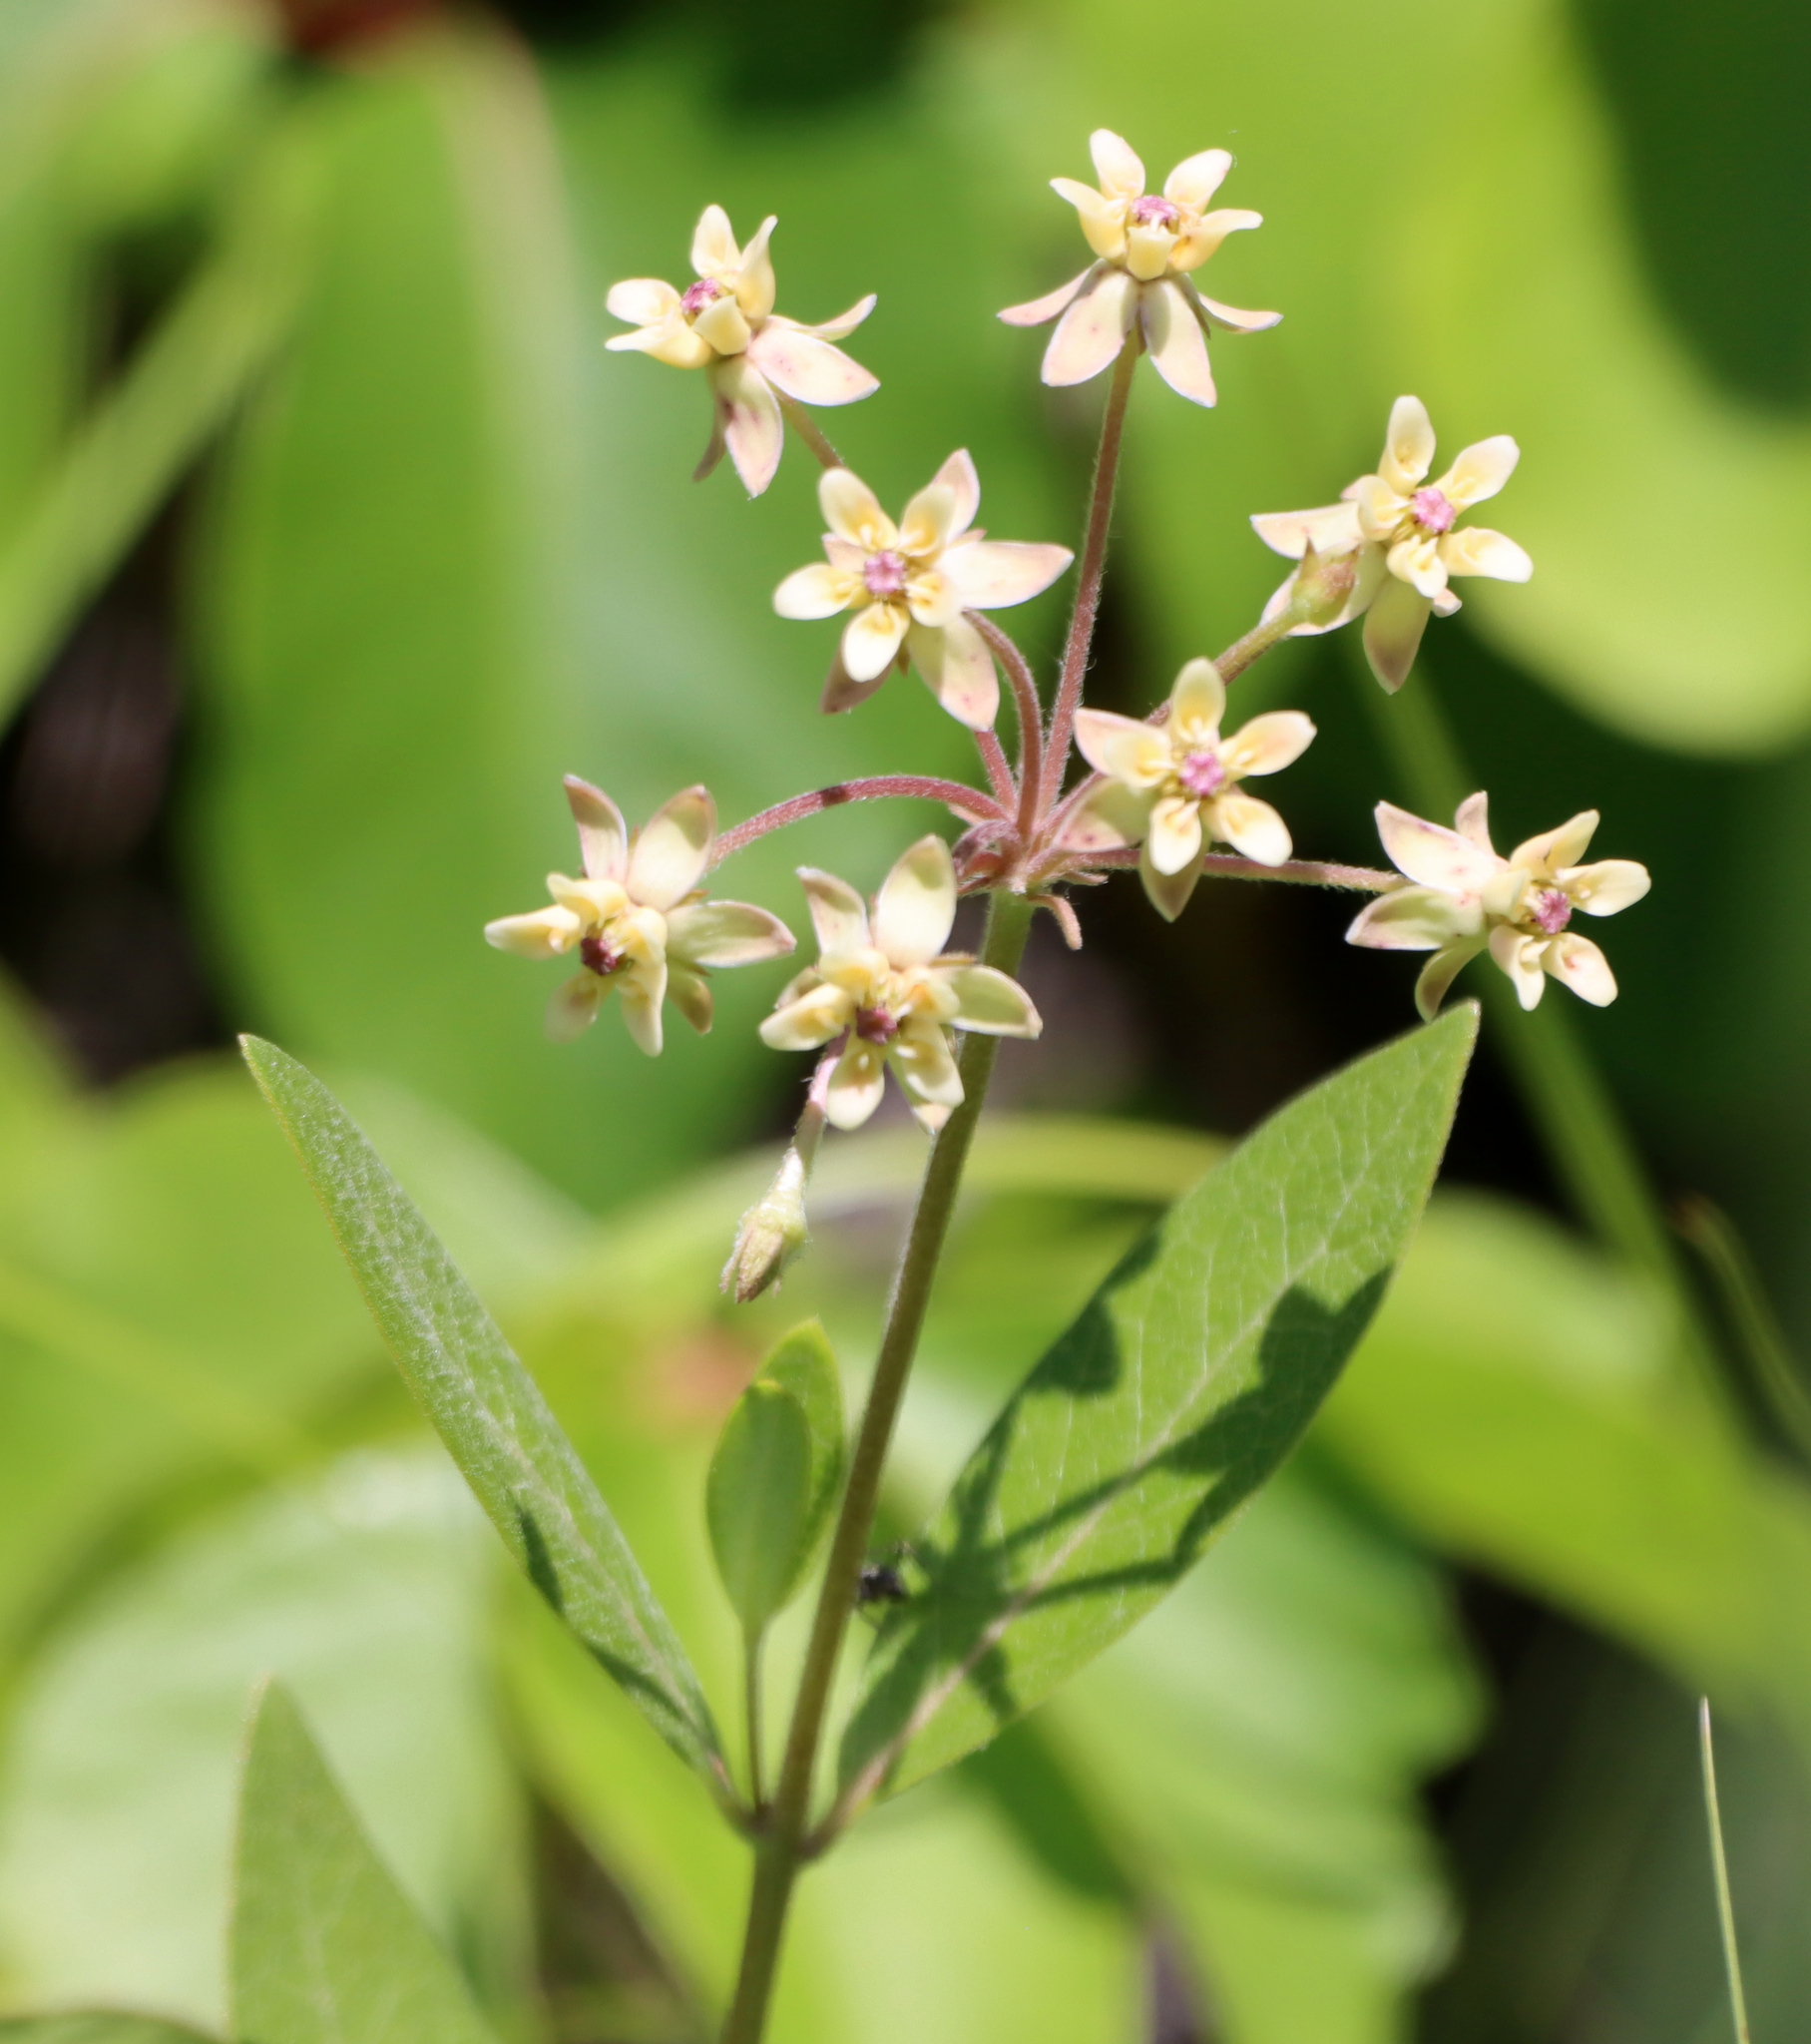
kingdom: Plantae
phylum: Tracheophyta
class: Magnoliopsida
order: Gentianales
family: Apocynaceae
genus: Asclepias
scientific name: Asclepias ovalifolia
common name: Dwarf milkweed
